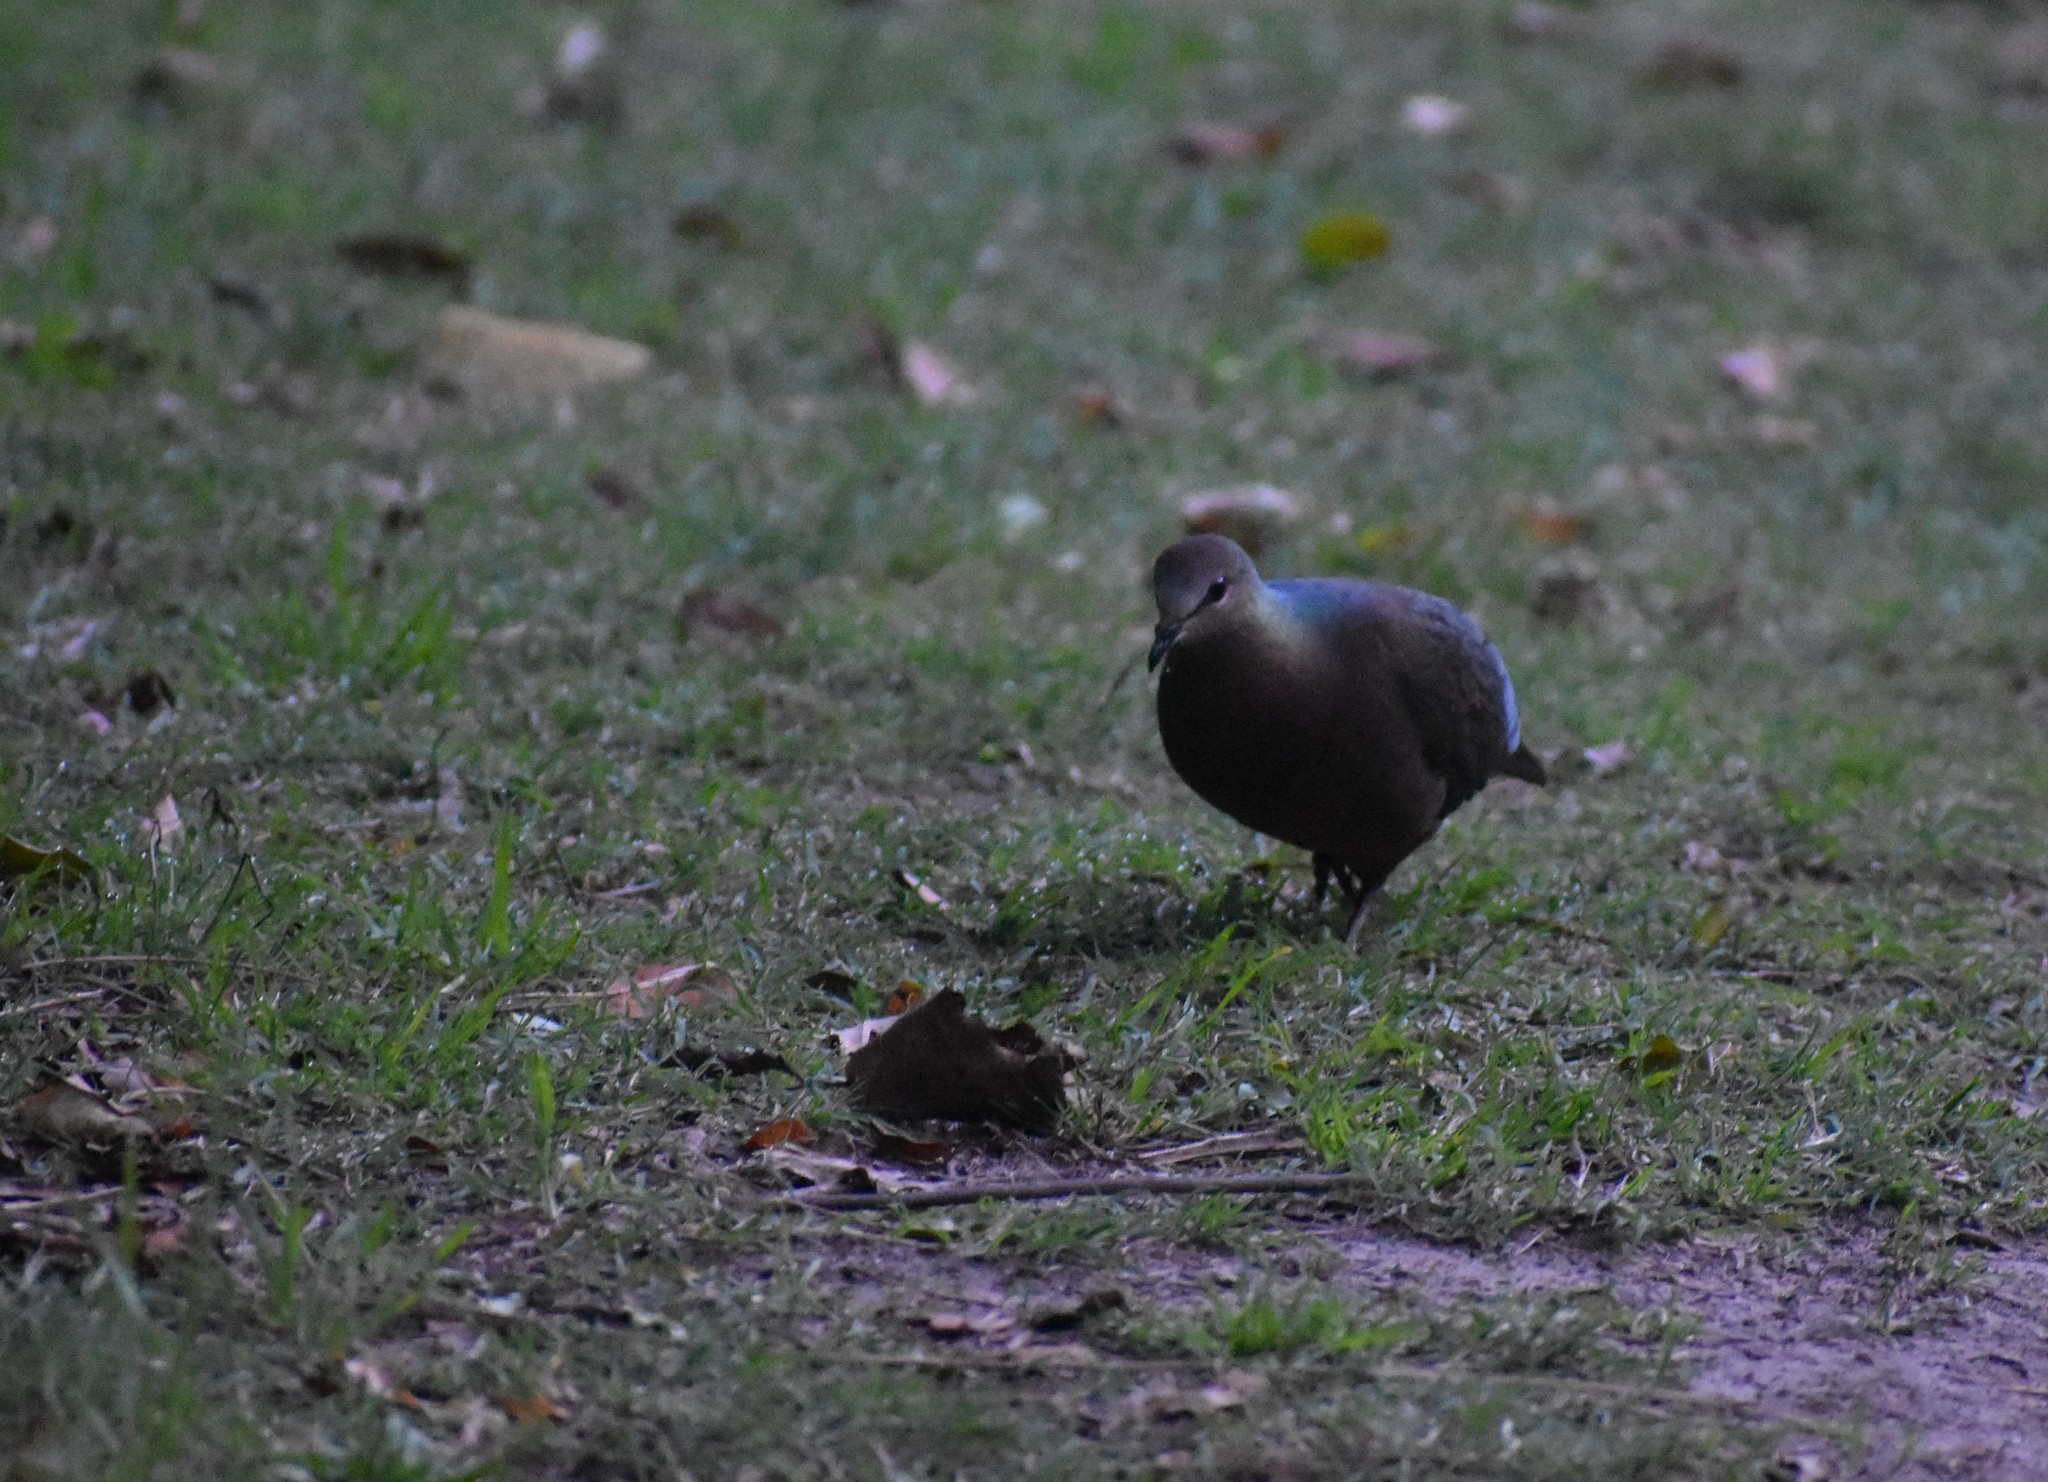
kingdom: Animalia
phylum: Chordata
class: Aves
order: Columbiformes
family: Columbidae
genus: Columba
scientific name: Columba larvata
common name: Lemon dove
